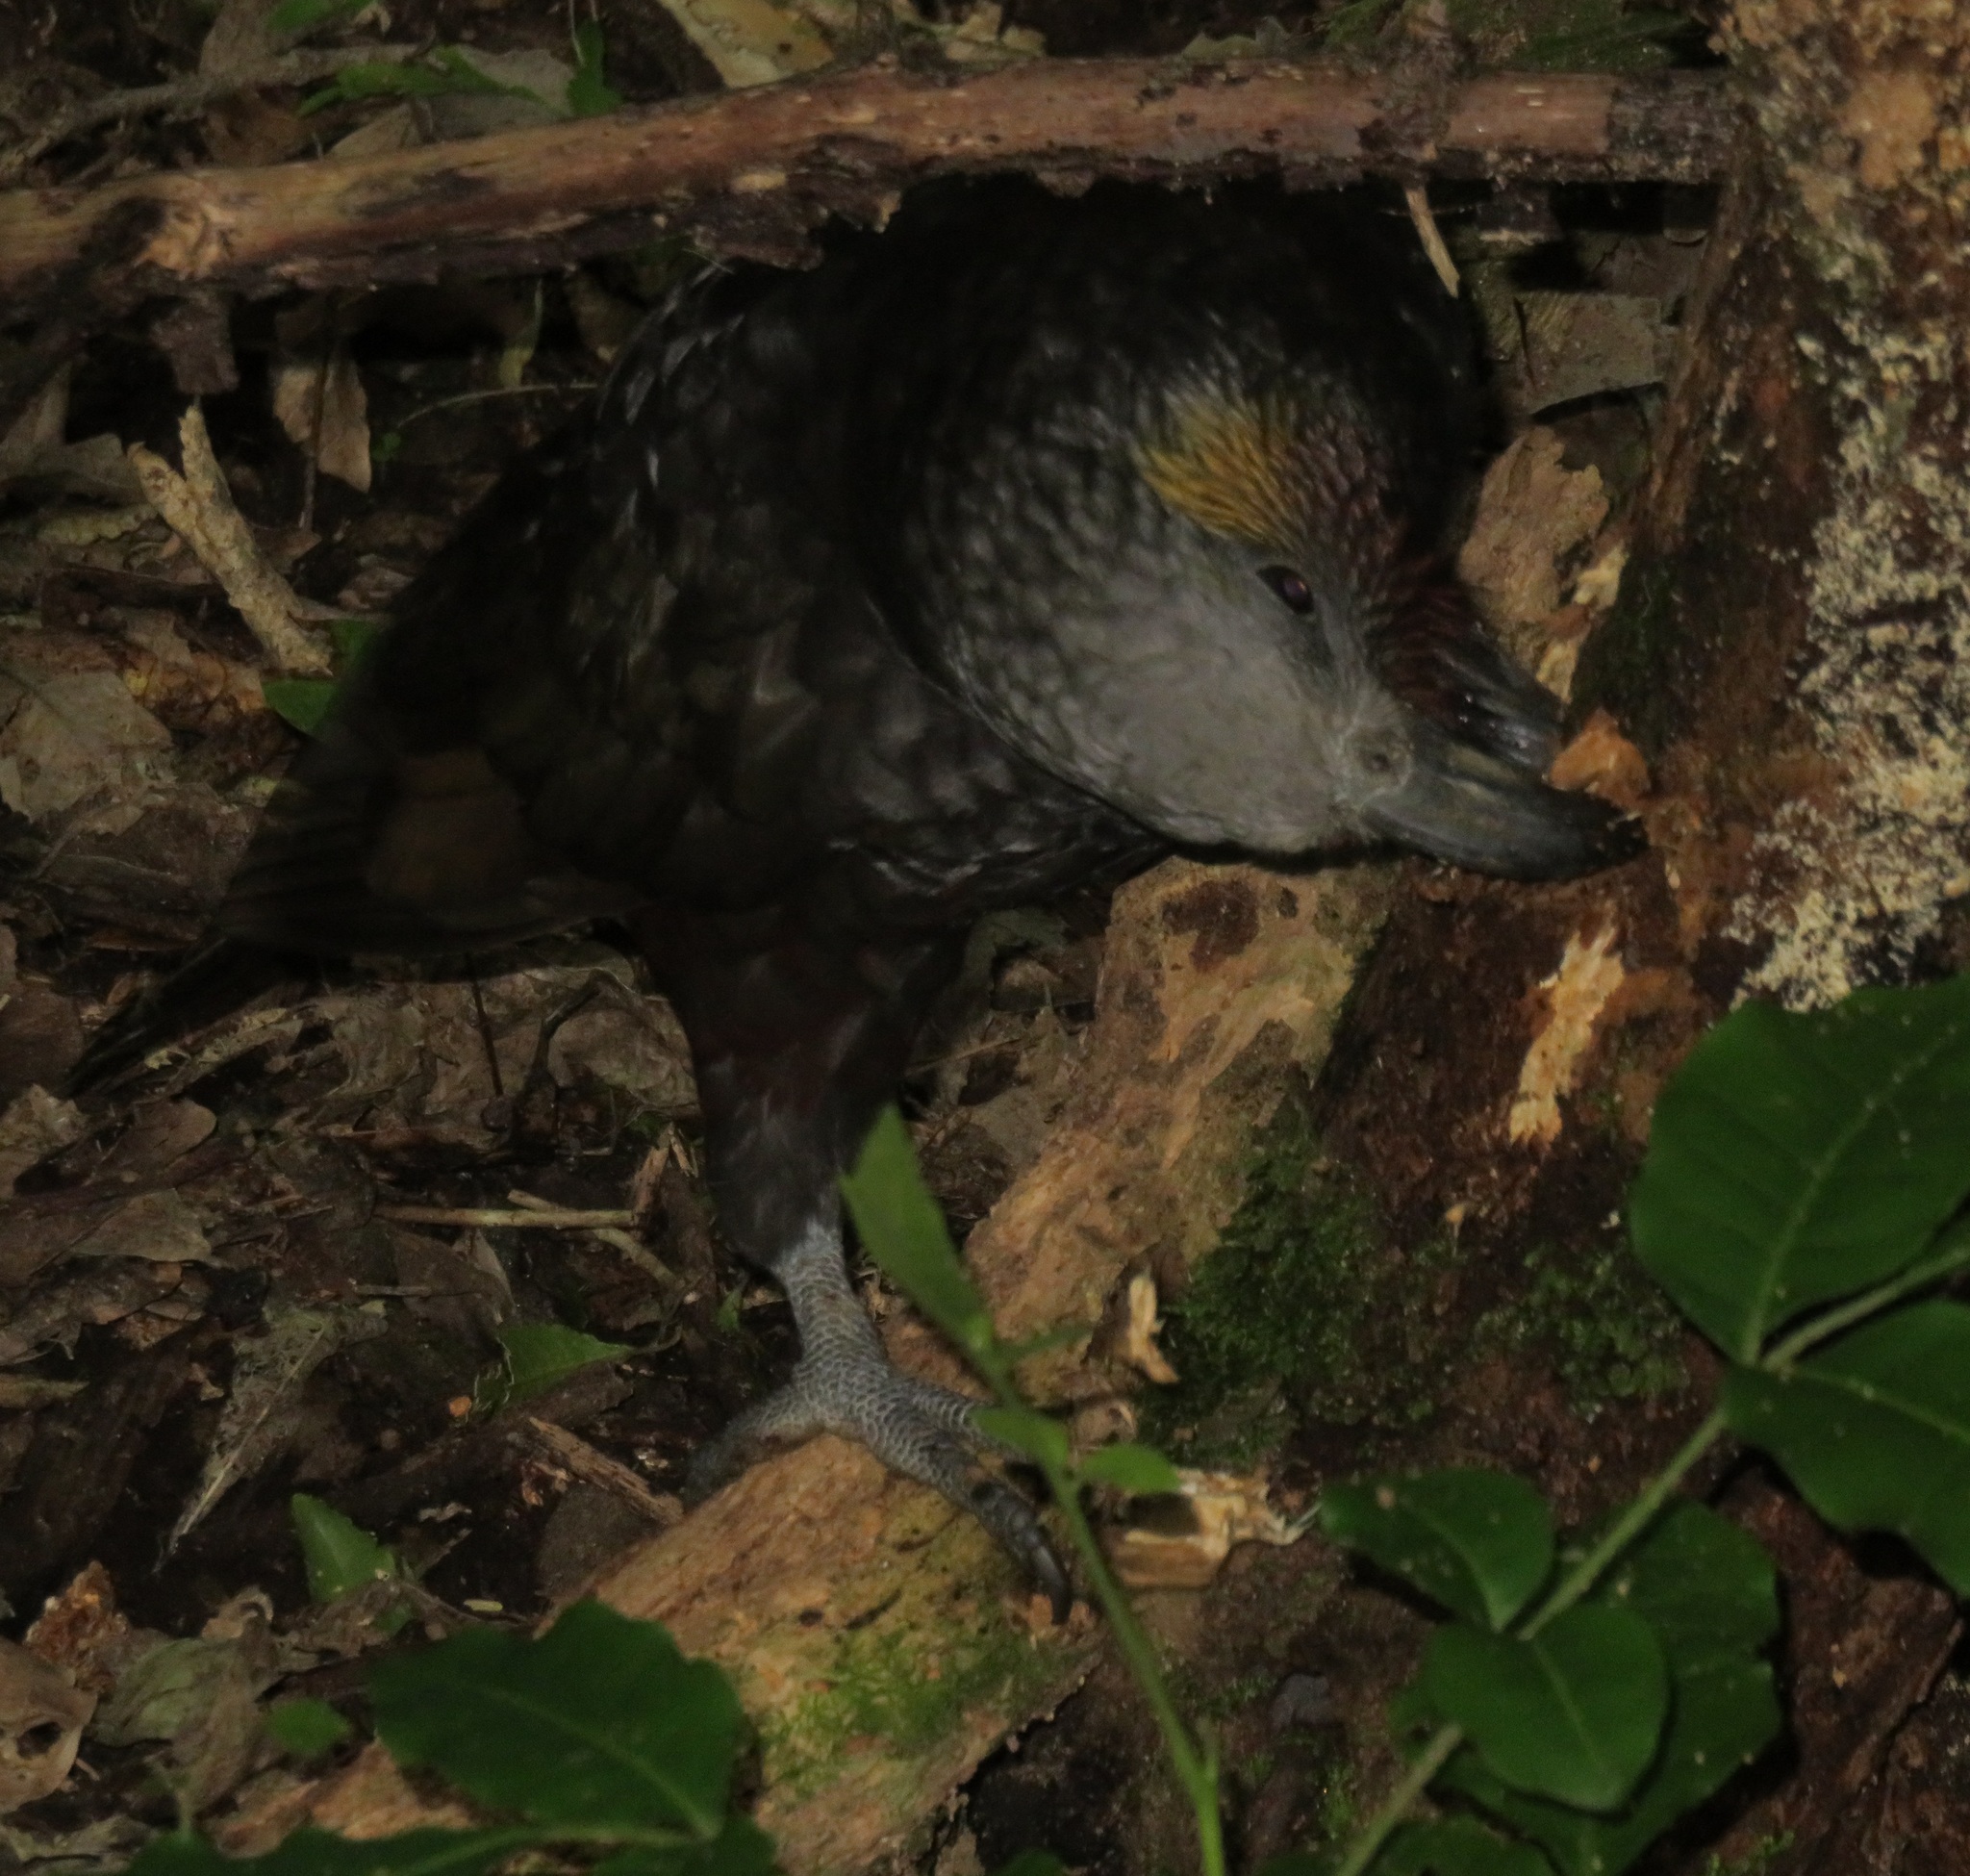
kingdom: Animalia
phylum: Chordata
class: Aves
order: Psittaciformes
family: Psittacidae
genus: Nestor
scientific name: Nestor meridionalis
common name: New zealand kaka
